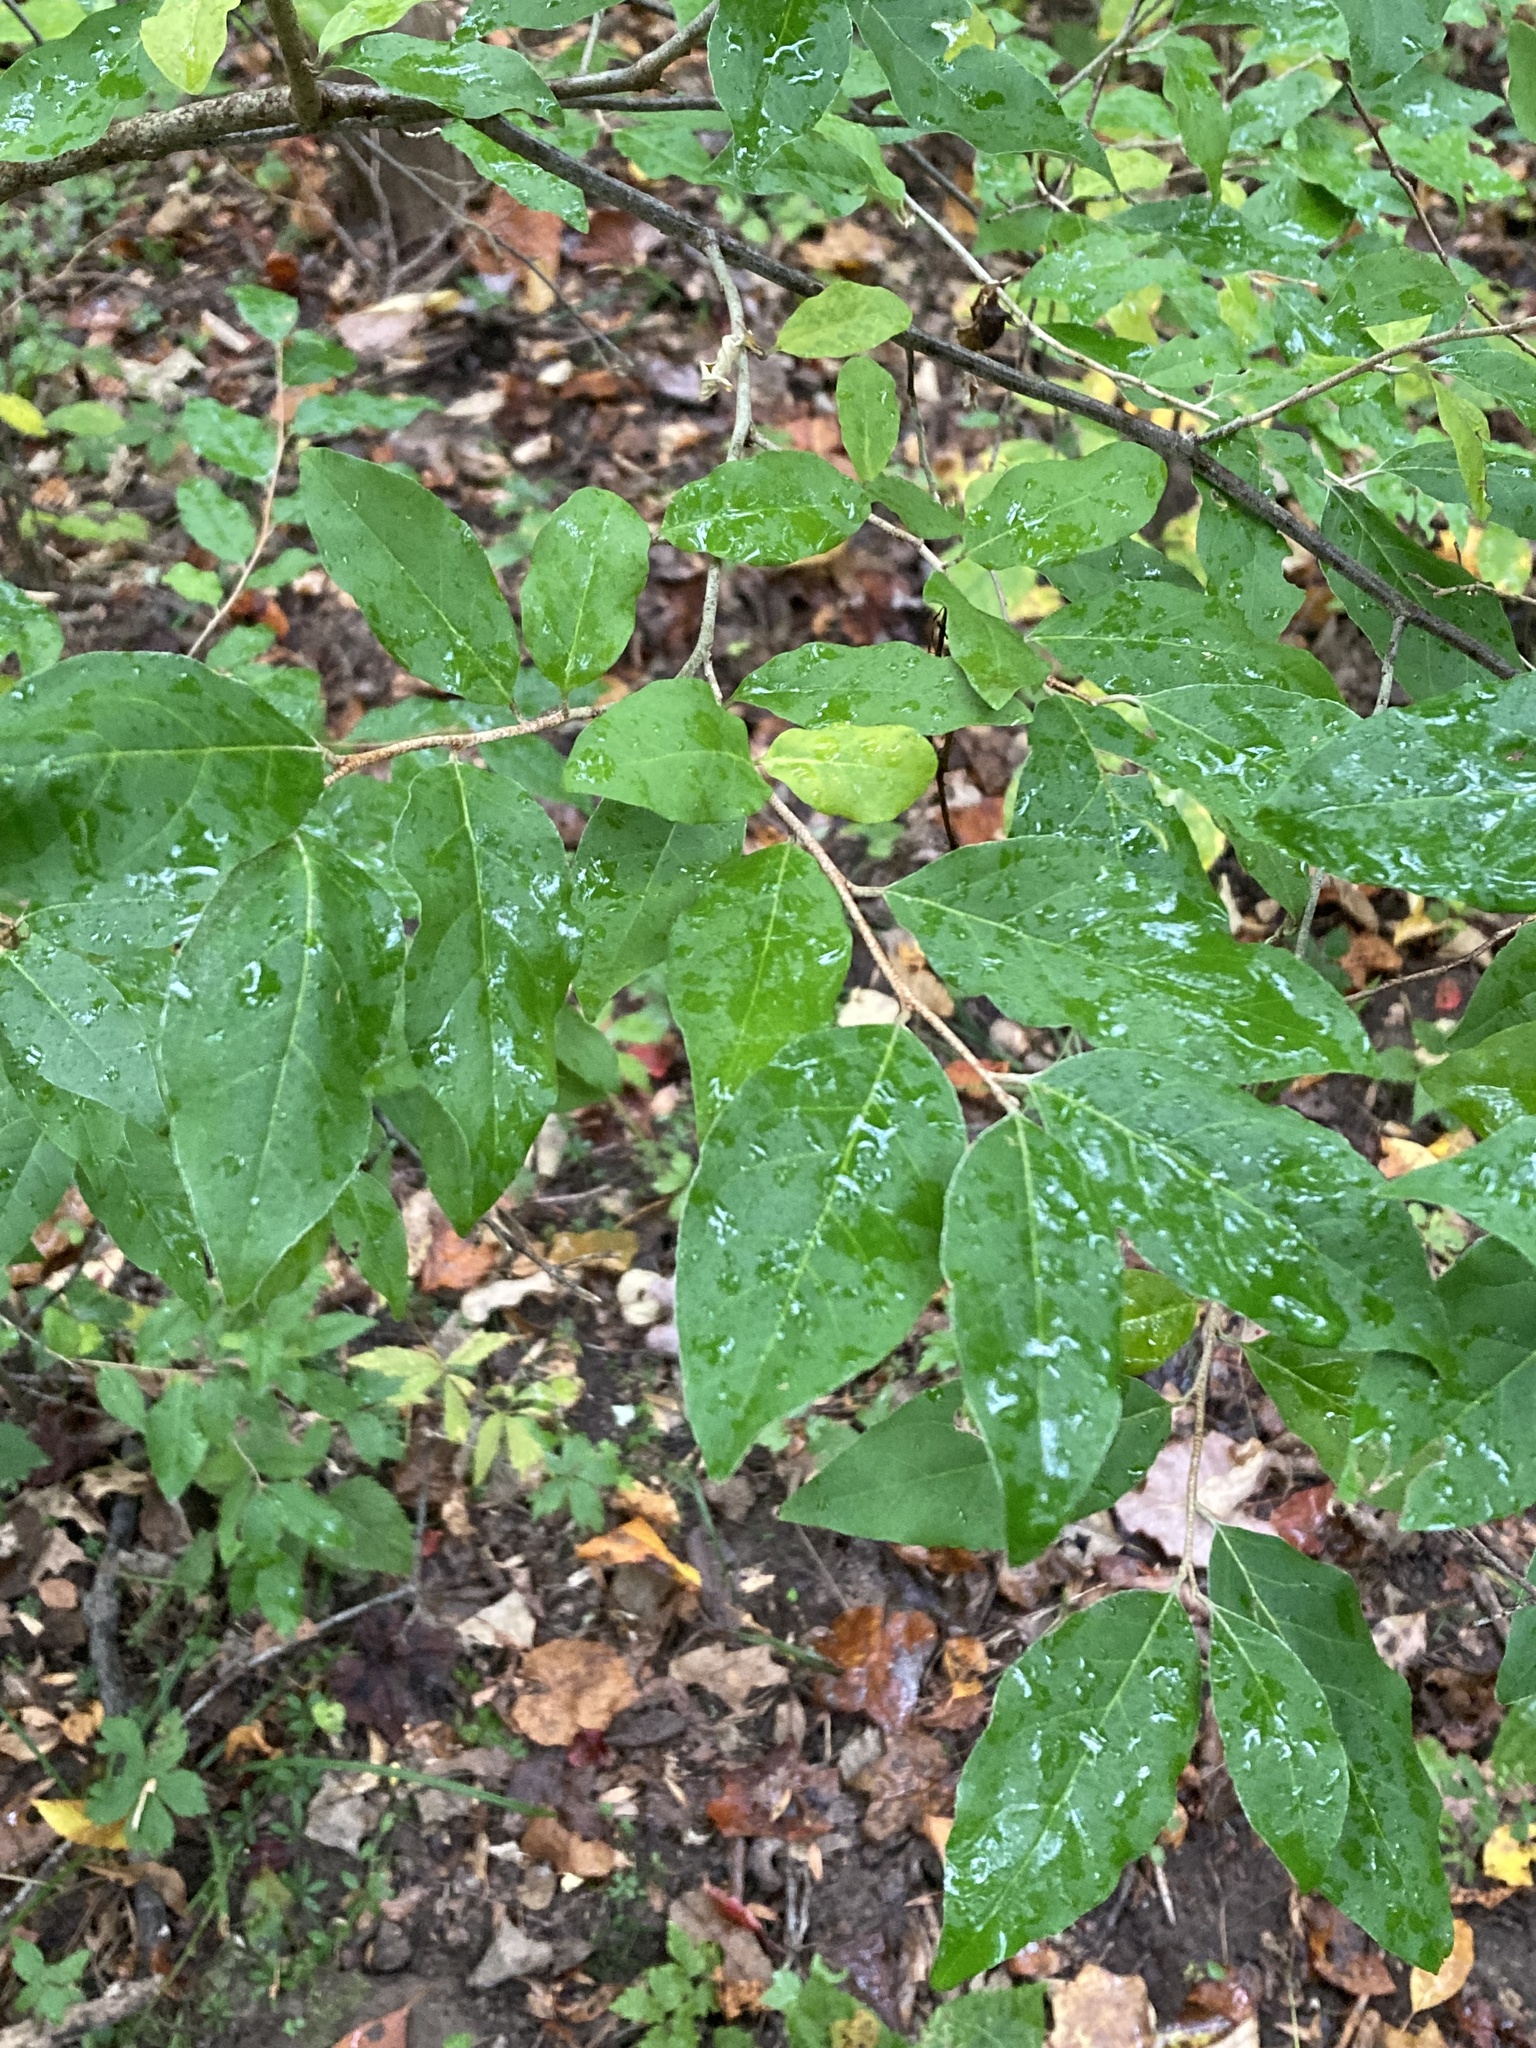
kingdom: Plantae
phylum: Tracheophyta
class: Magnoliopsida
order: Rosales
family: Elaeagnaceae
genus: Elaeagnus
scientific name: Elaeagnus umbellata
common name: Autumn olive
